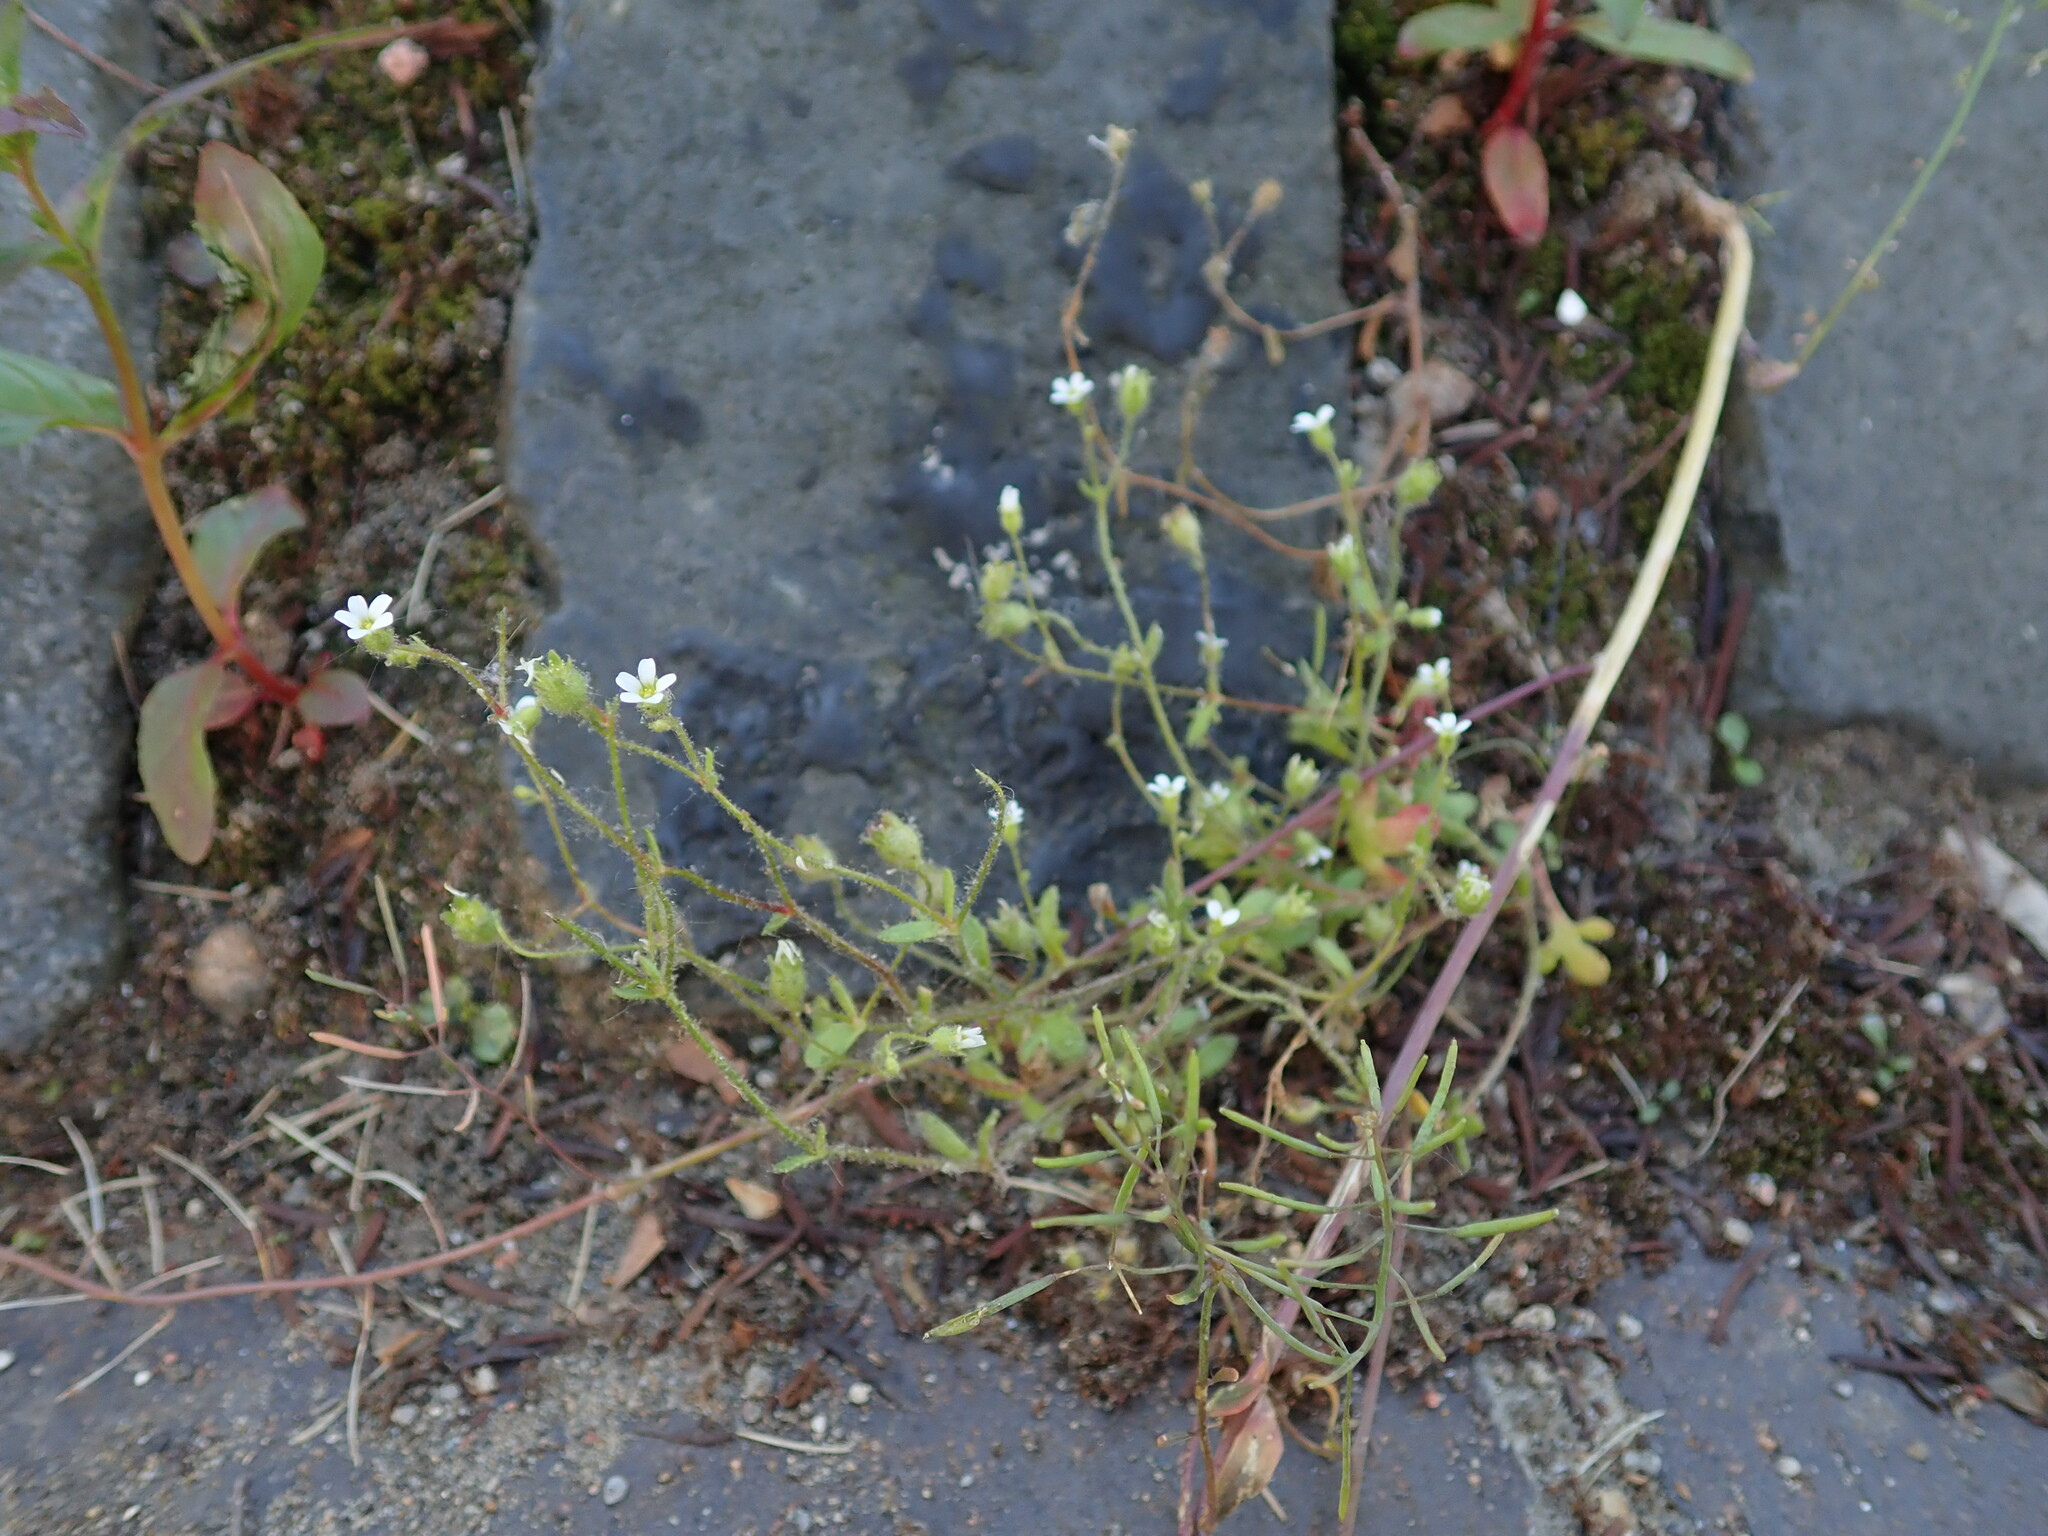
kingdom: Plantae
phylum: Tracheophyta
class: Magnoliopsida
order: Saxifragales
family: Saxifragaceae
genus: Saxifraga
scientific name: Saxifraga tridactylites
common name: Rue-leaved saxifrage
